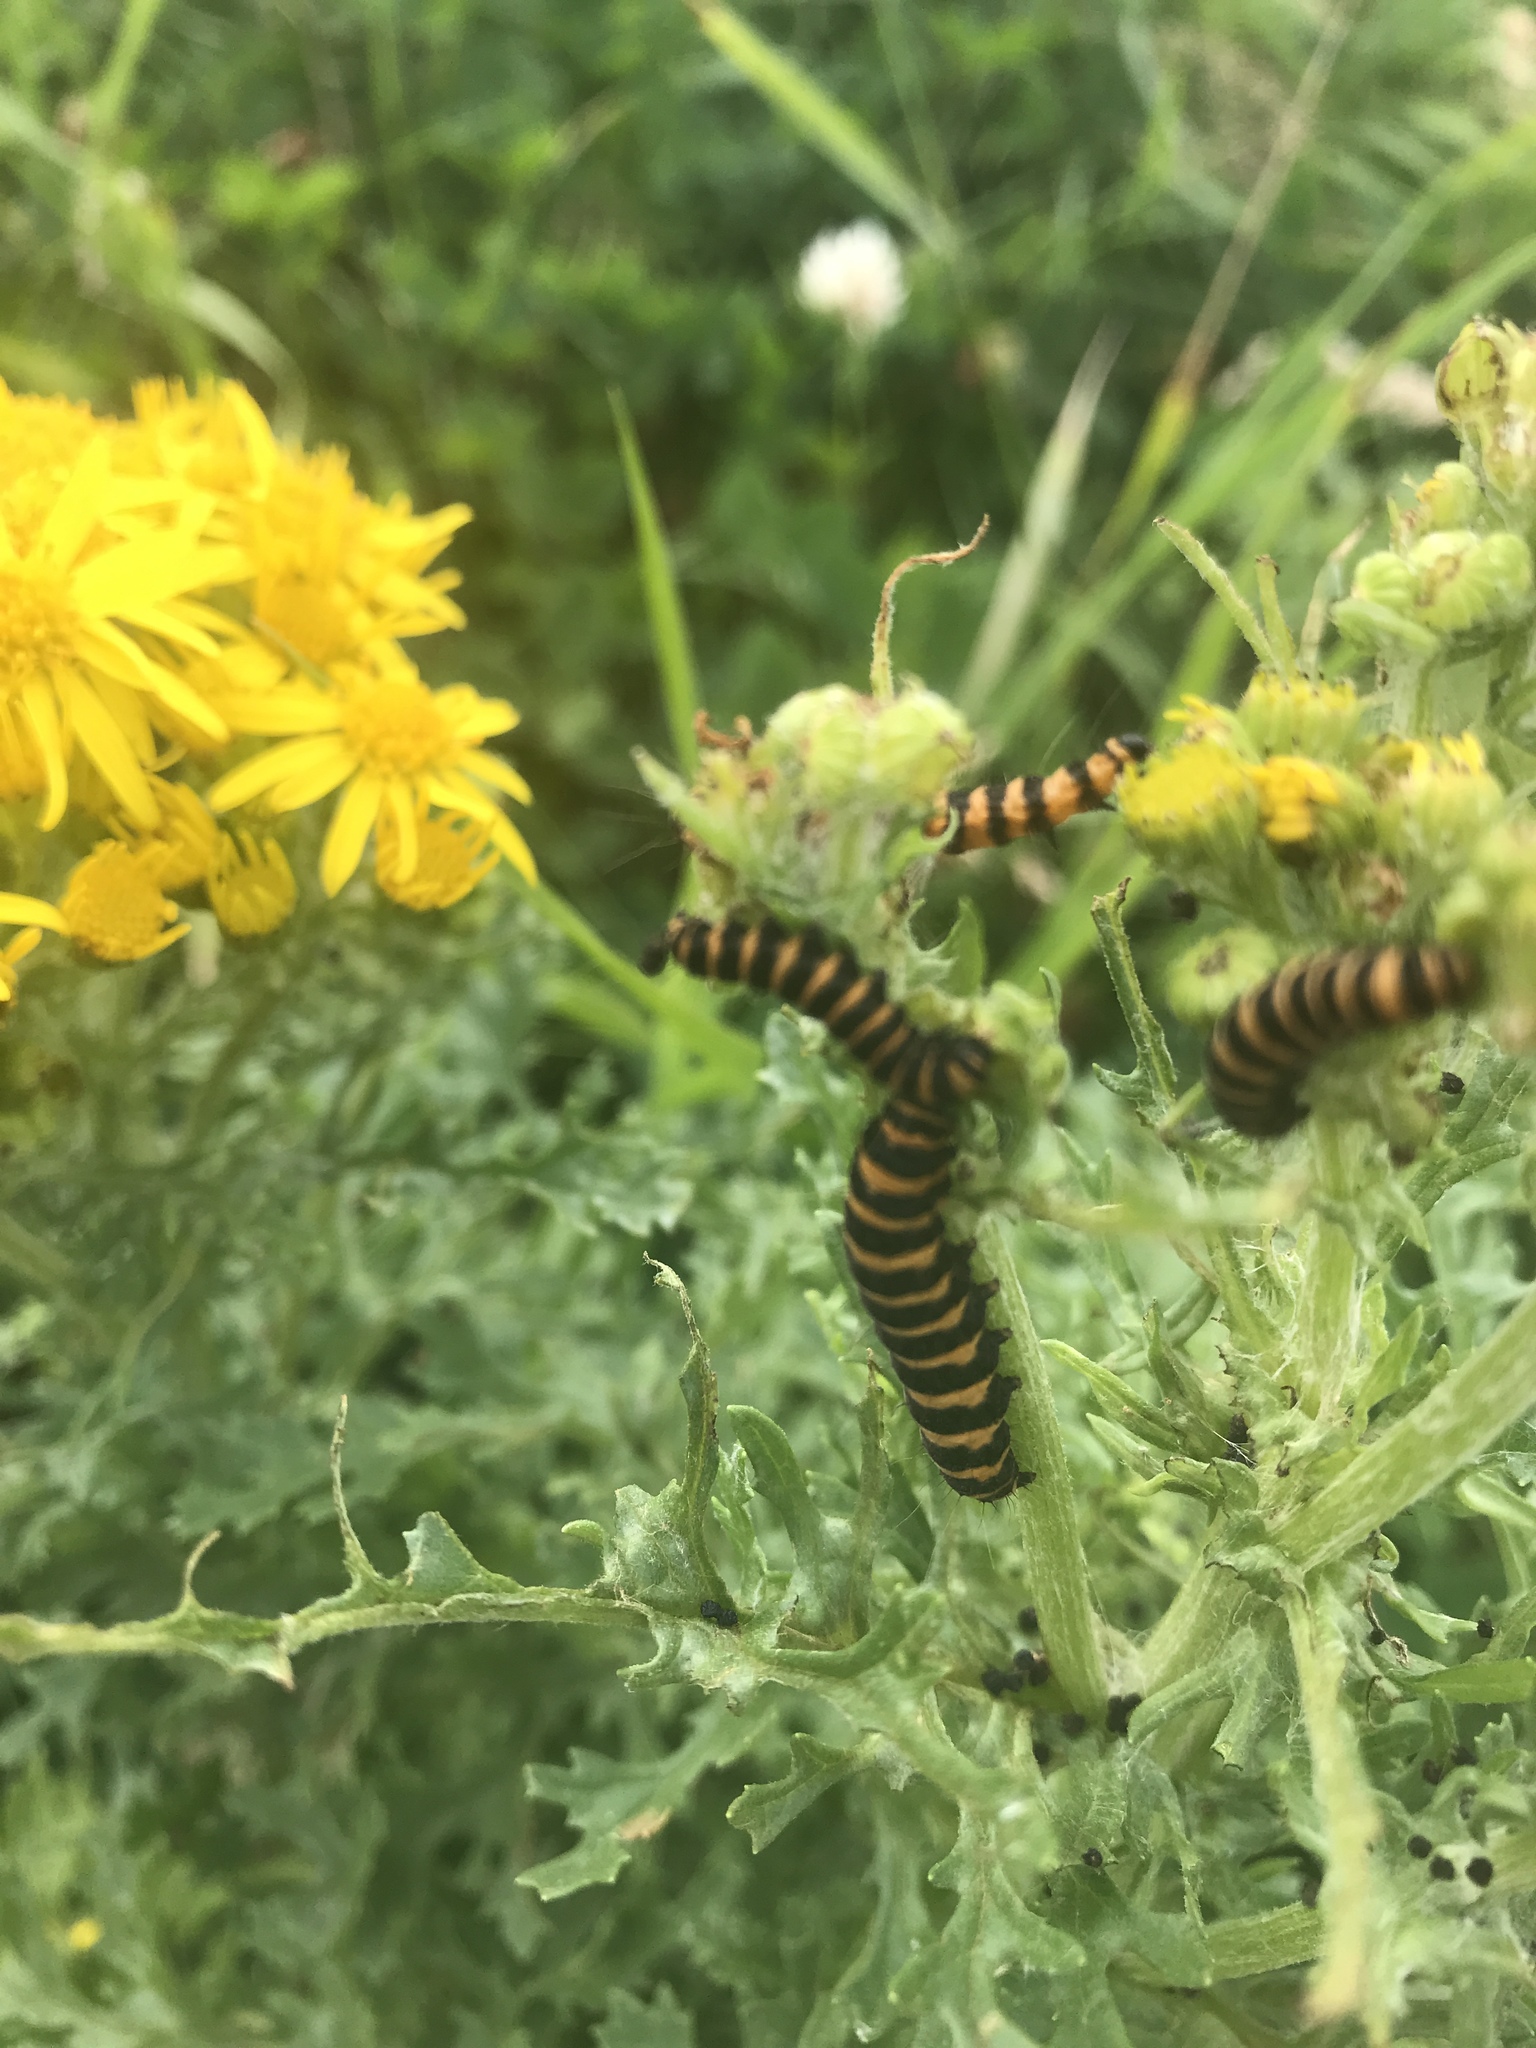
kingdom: Animalia
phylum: Arthropoda
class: Insecta
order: Lepidoptera
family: Erebidae
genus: Tyria
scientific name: Tyria jacobaeae
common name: Cinnabar
